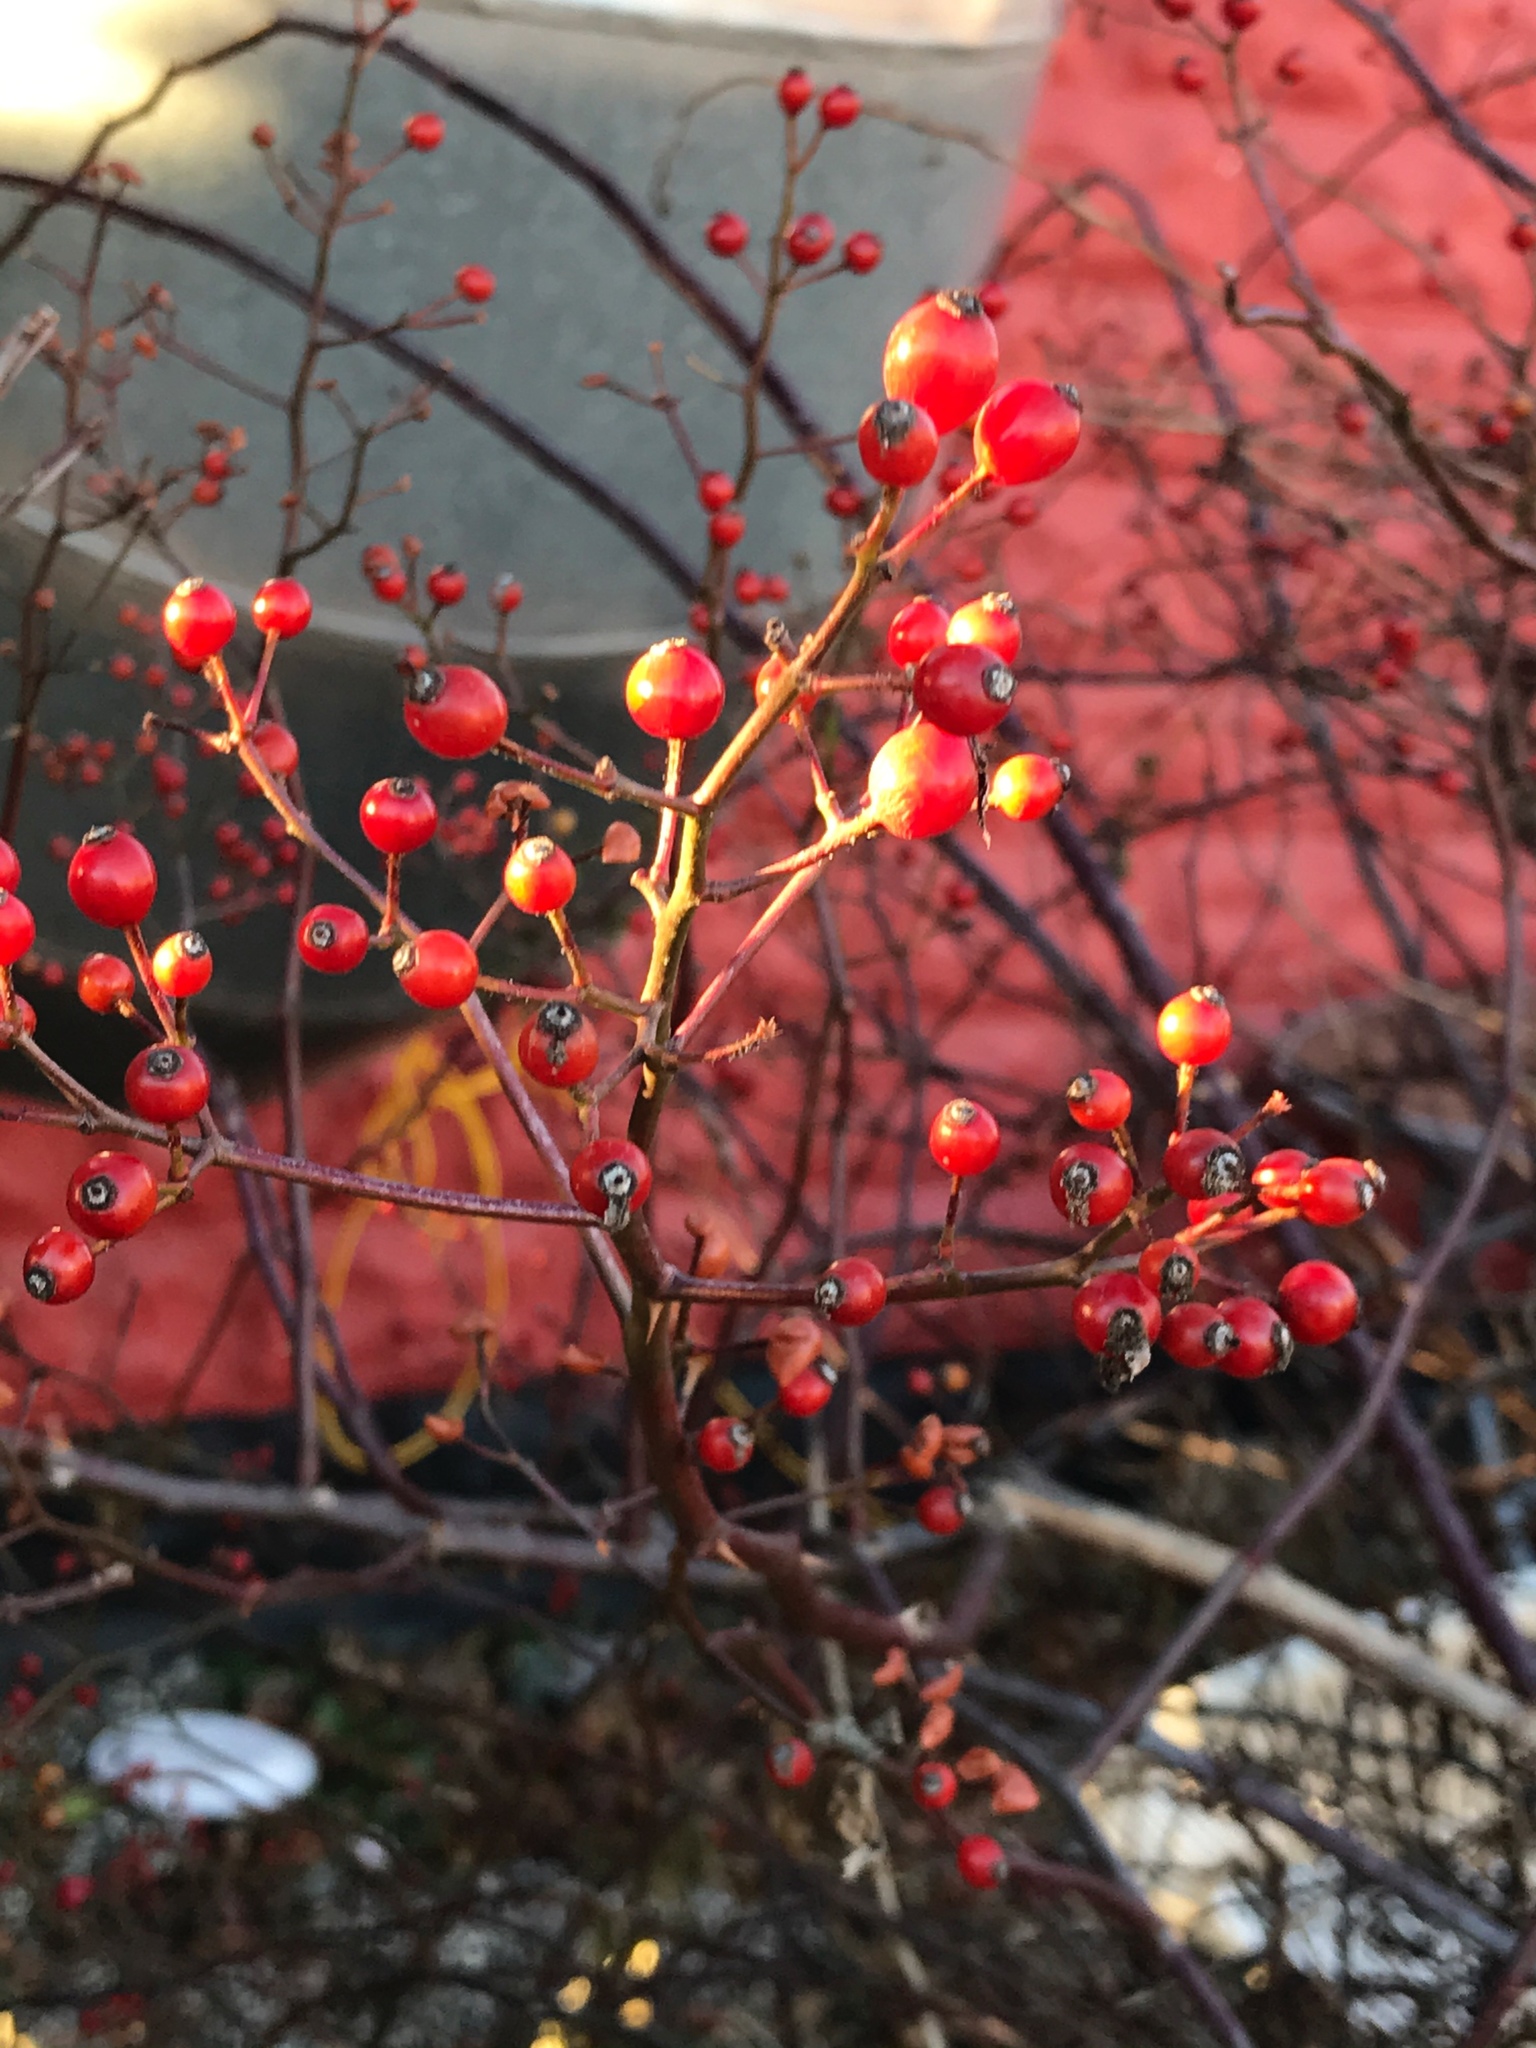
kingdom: Plantae
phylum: Tracheophyta
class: Magnoliopsida
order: Rosales
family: Rosaceae
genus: Rosa
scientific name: Rosa multiflora
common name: Multiflora rose
